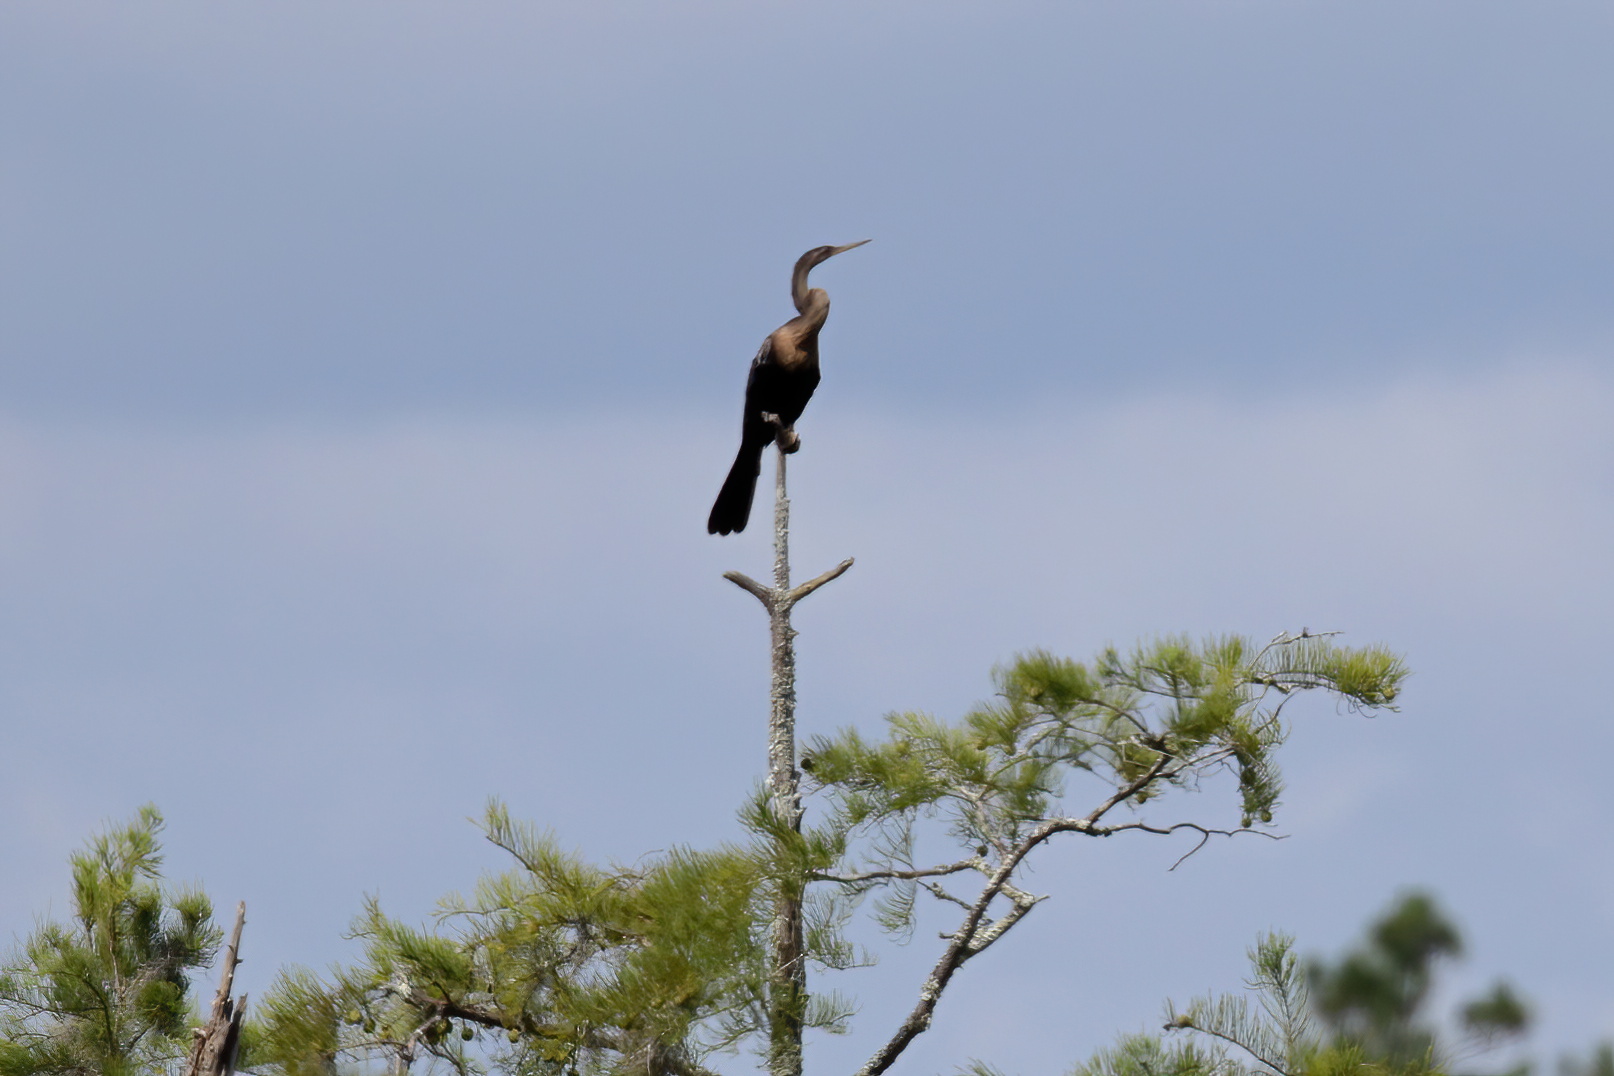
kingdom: Animalia
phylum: Chordata
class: Aves
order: Suliformes
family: Anhingidae
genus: Anhinga
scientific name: Anhinga anhinga
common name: Anhinga
